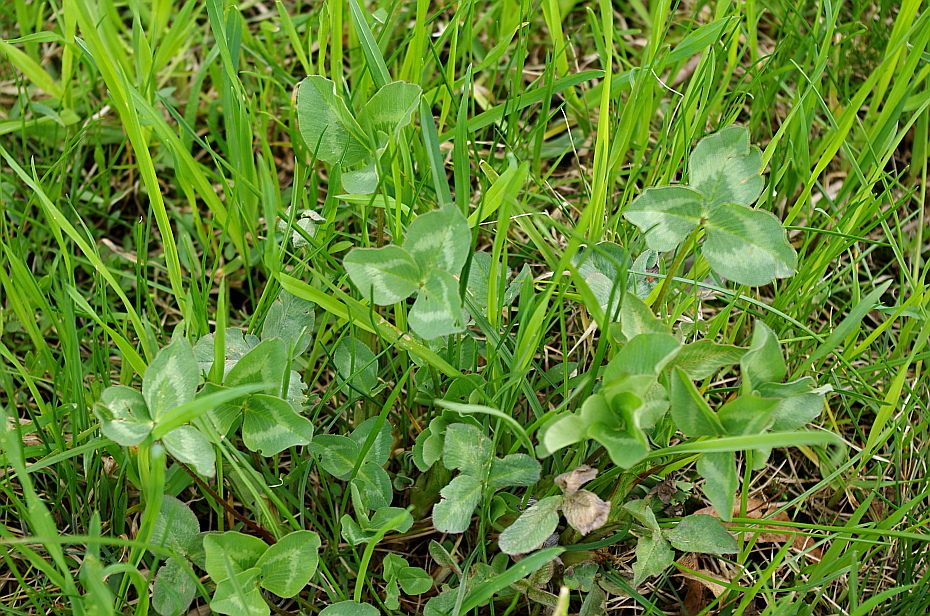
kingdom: Plantae
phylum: Tracheophyta
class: Magnoliopsida
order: Fabales
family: Fabaceae
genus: Trifolium
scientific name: Trifolium pratense
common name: Red clover
